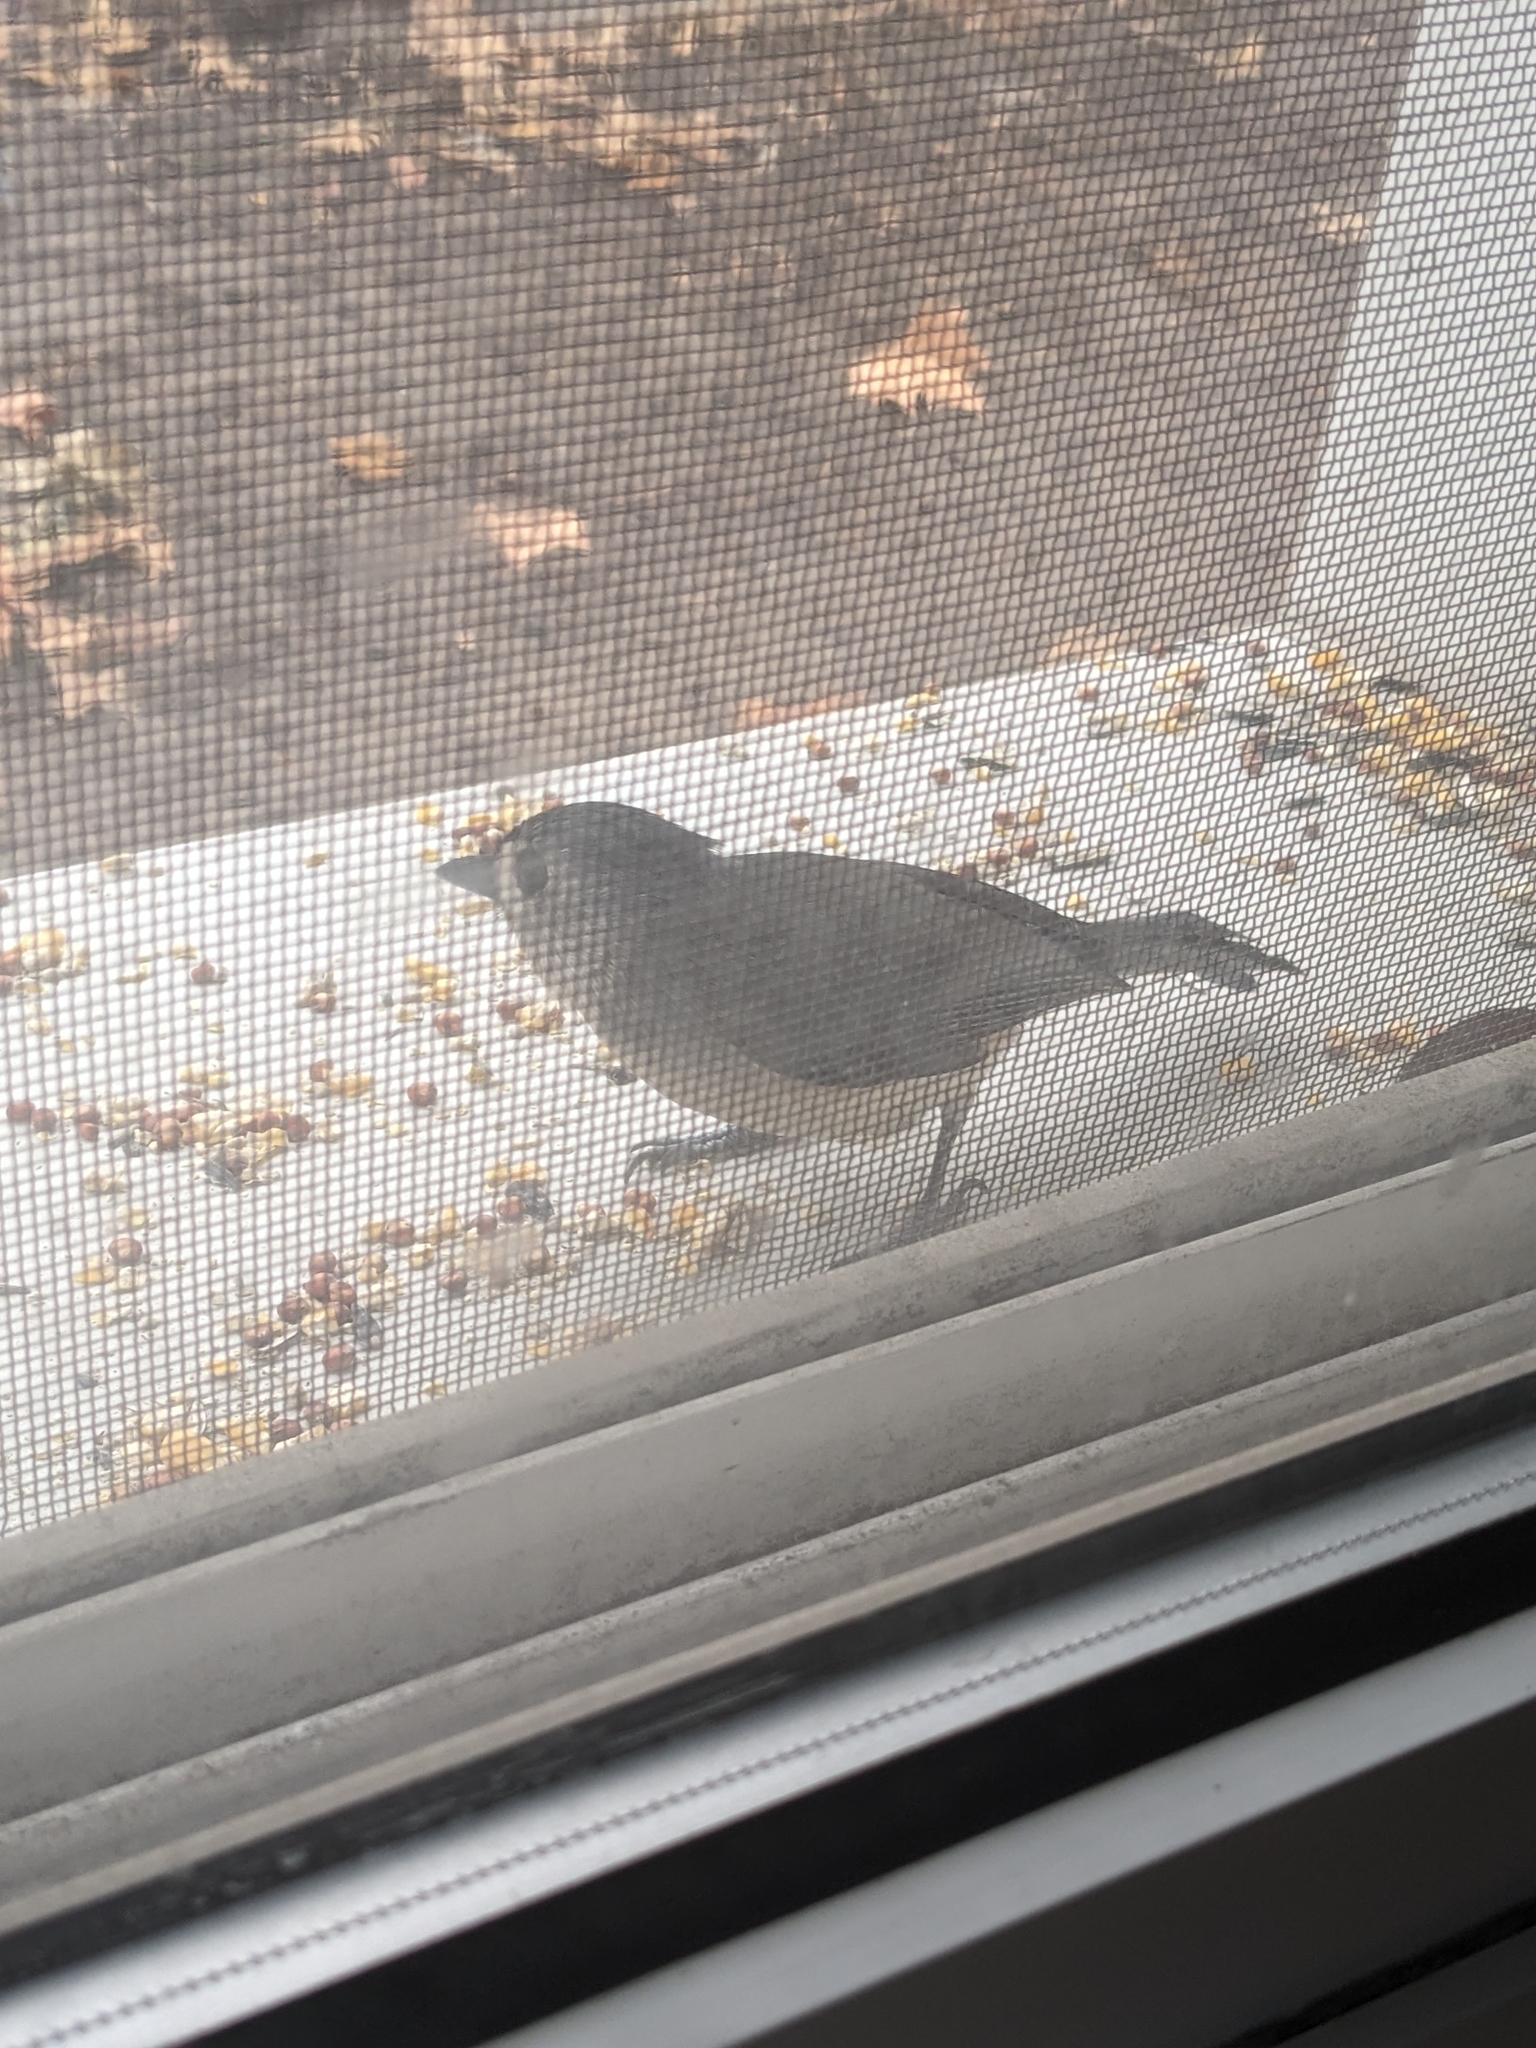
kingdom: Animalia
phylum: Chordata
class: Aves
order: Passeriformes
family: Paridae
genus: Baeolophus
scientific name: Baeolophus bicolor
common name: Tufted titmouse
